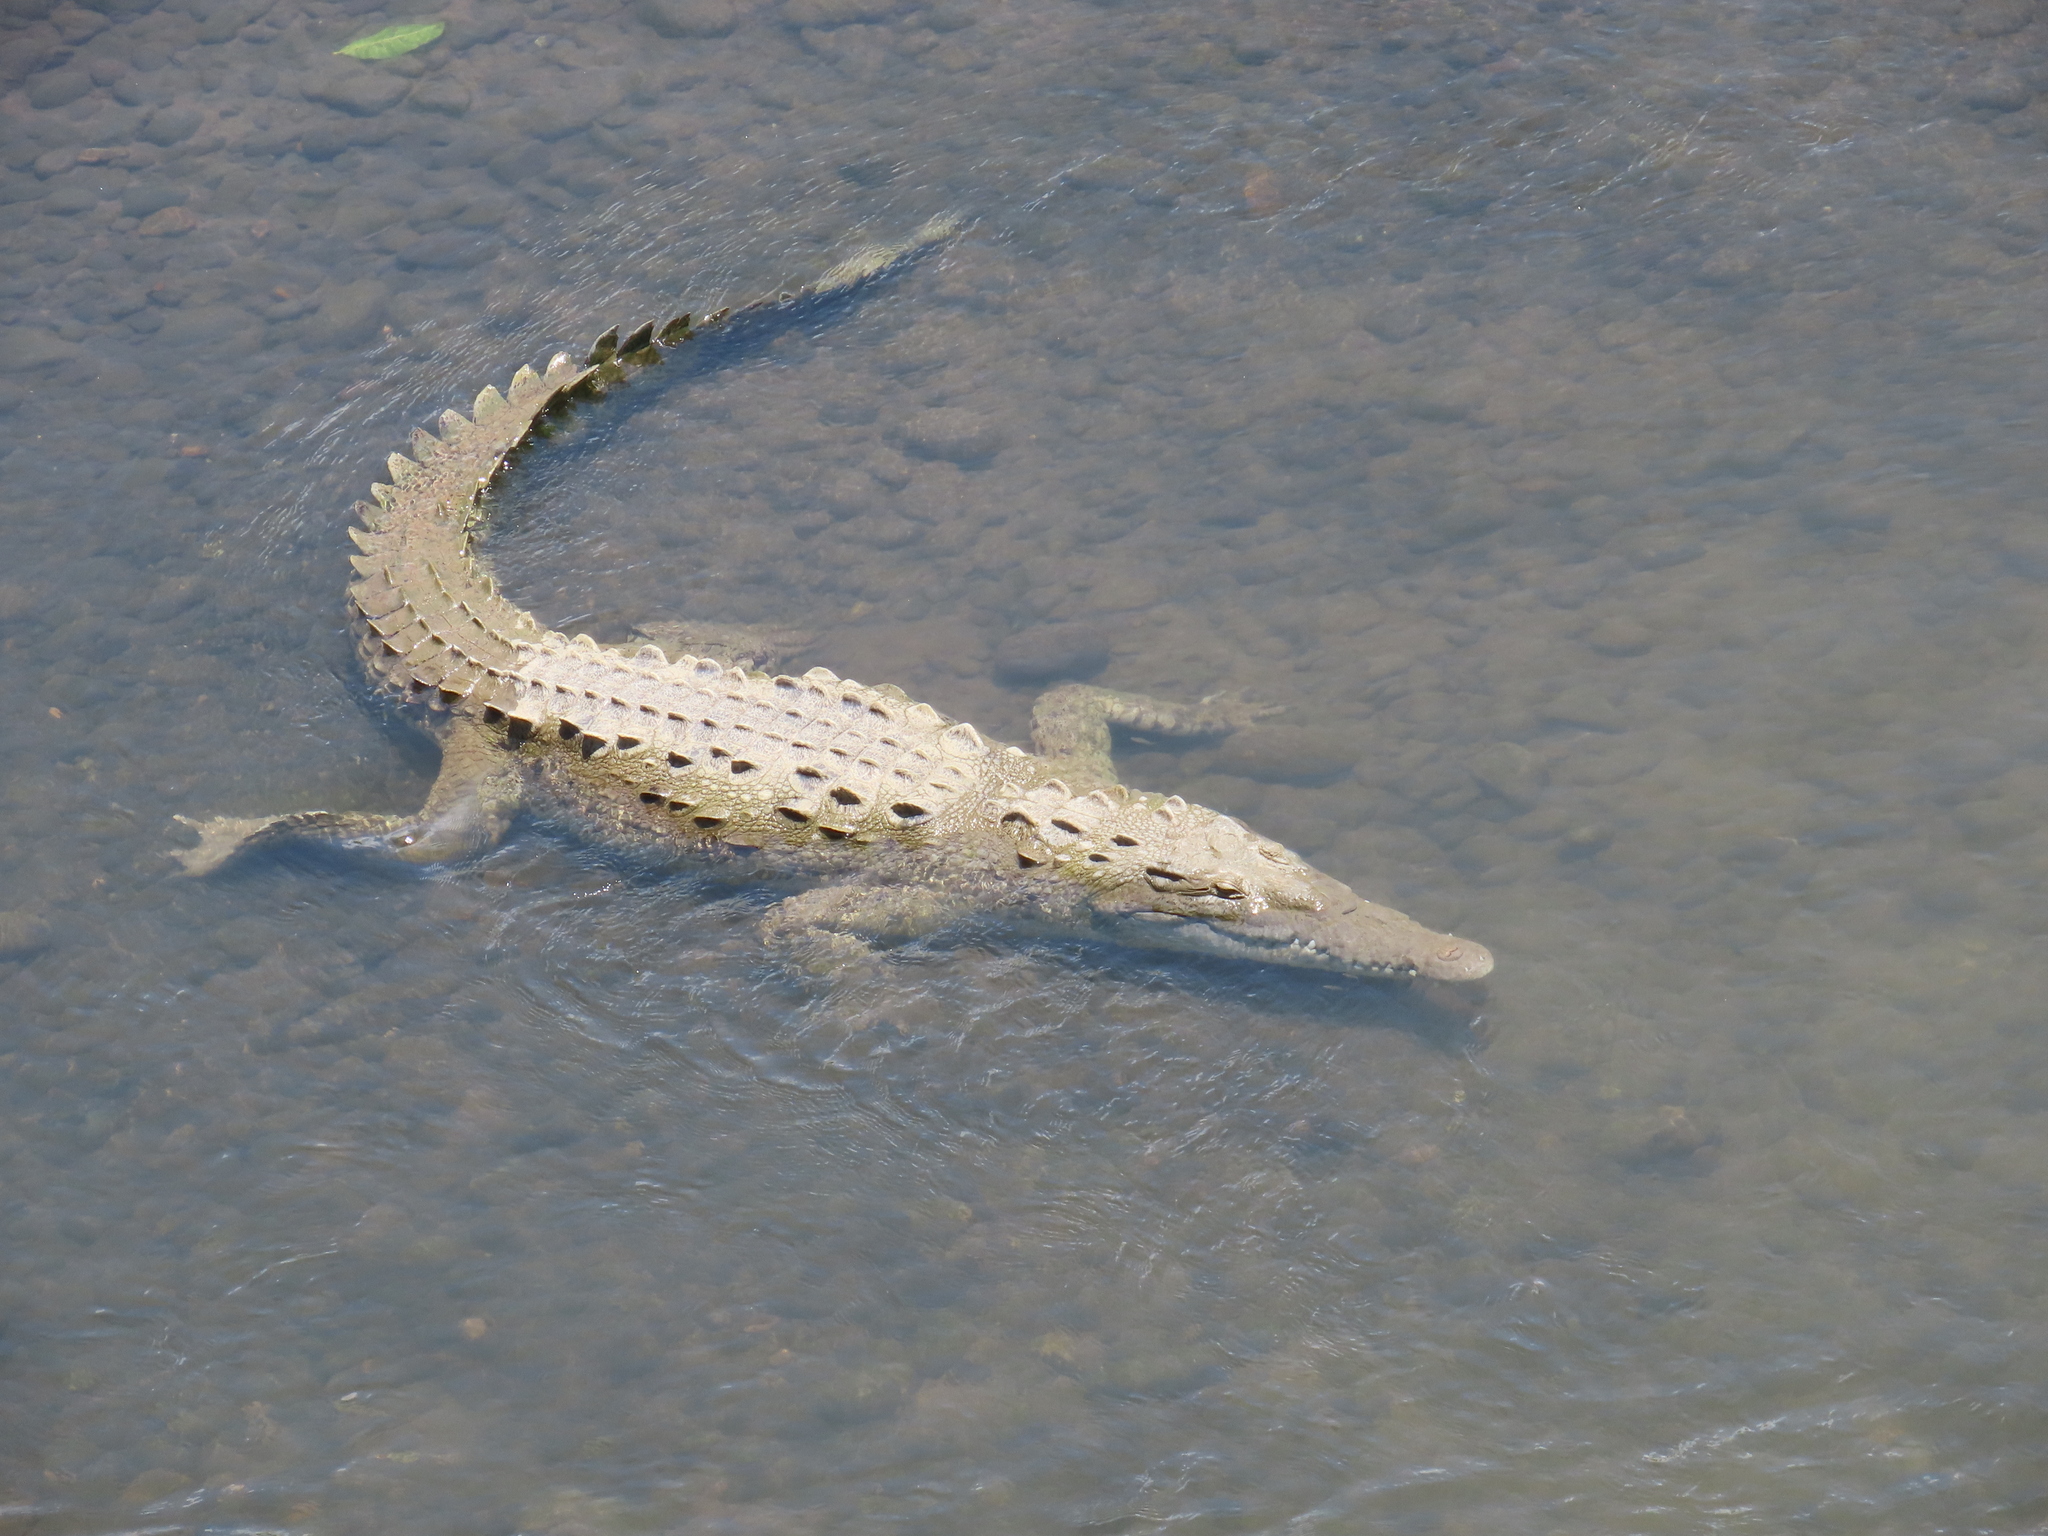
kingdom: Animalia
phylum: Chordata
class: Crocodylia
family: Crocodylidae
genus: Crocodylus
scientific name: Crocodylus acutus
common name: American crocodile
